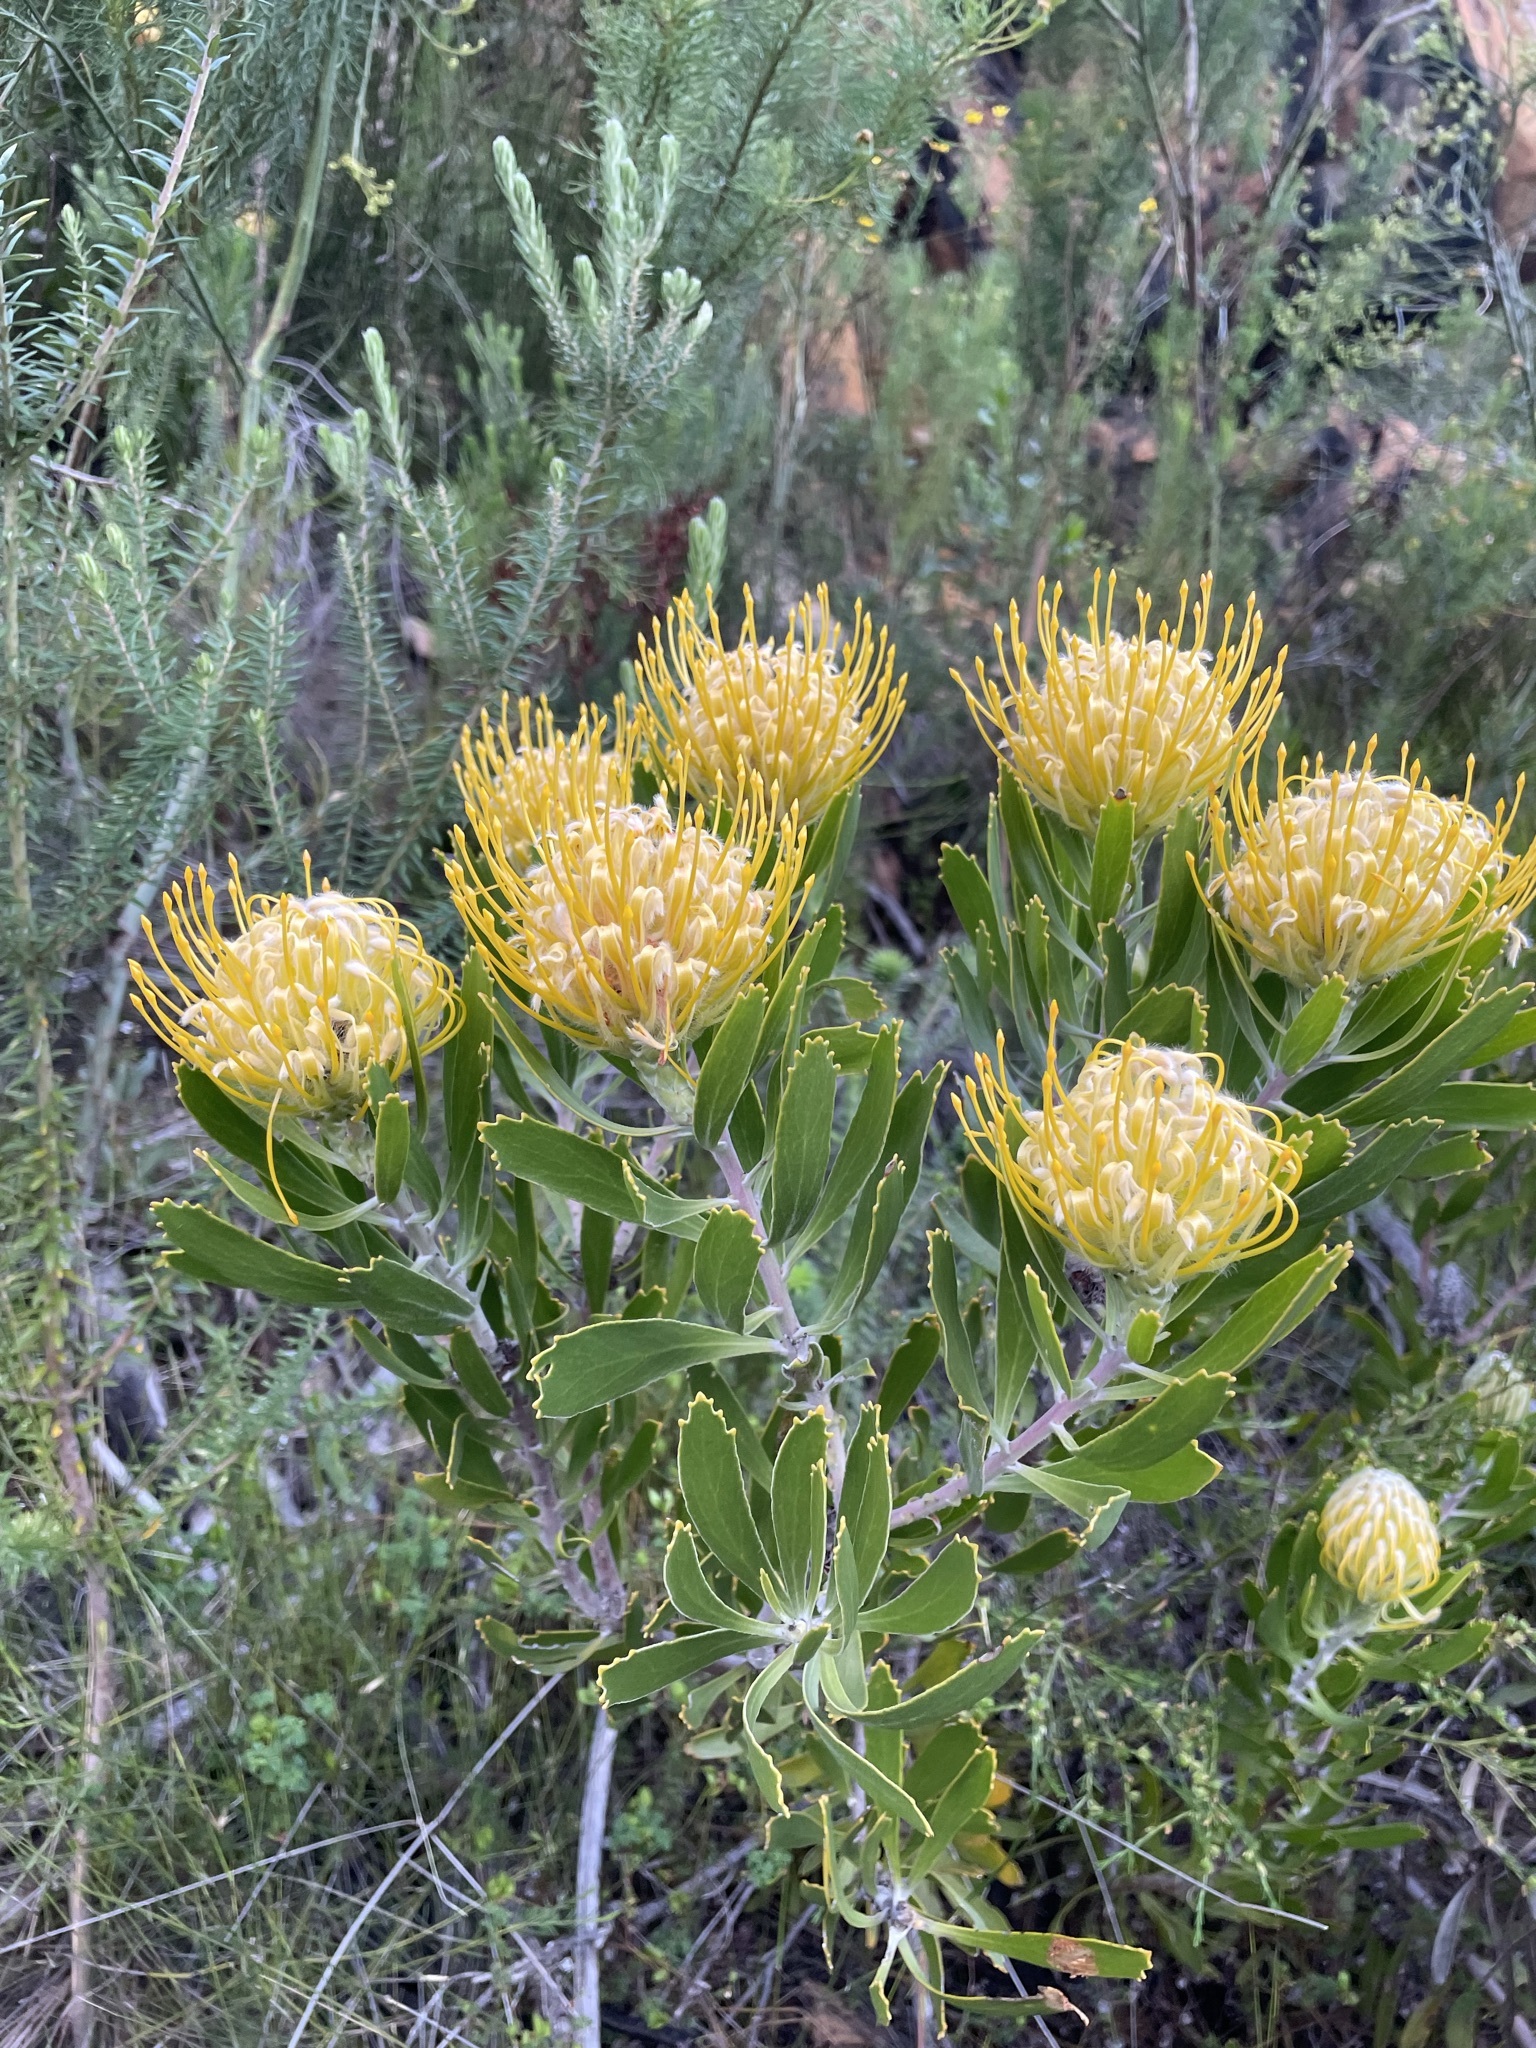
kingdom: Plantae
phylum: Tracheophyta
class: Magnoliopsida
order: Proteales
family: Proteaceae
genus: Leucospermum
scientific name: Leucospermum cuneiforme
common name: Common pincushion
